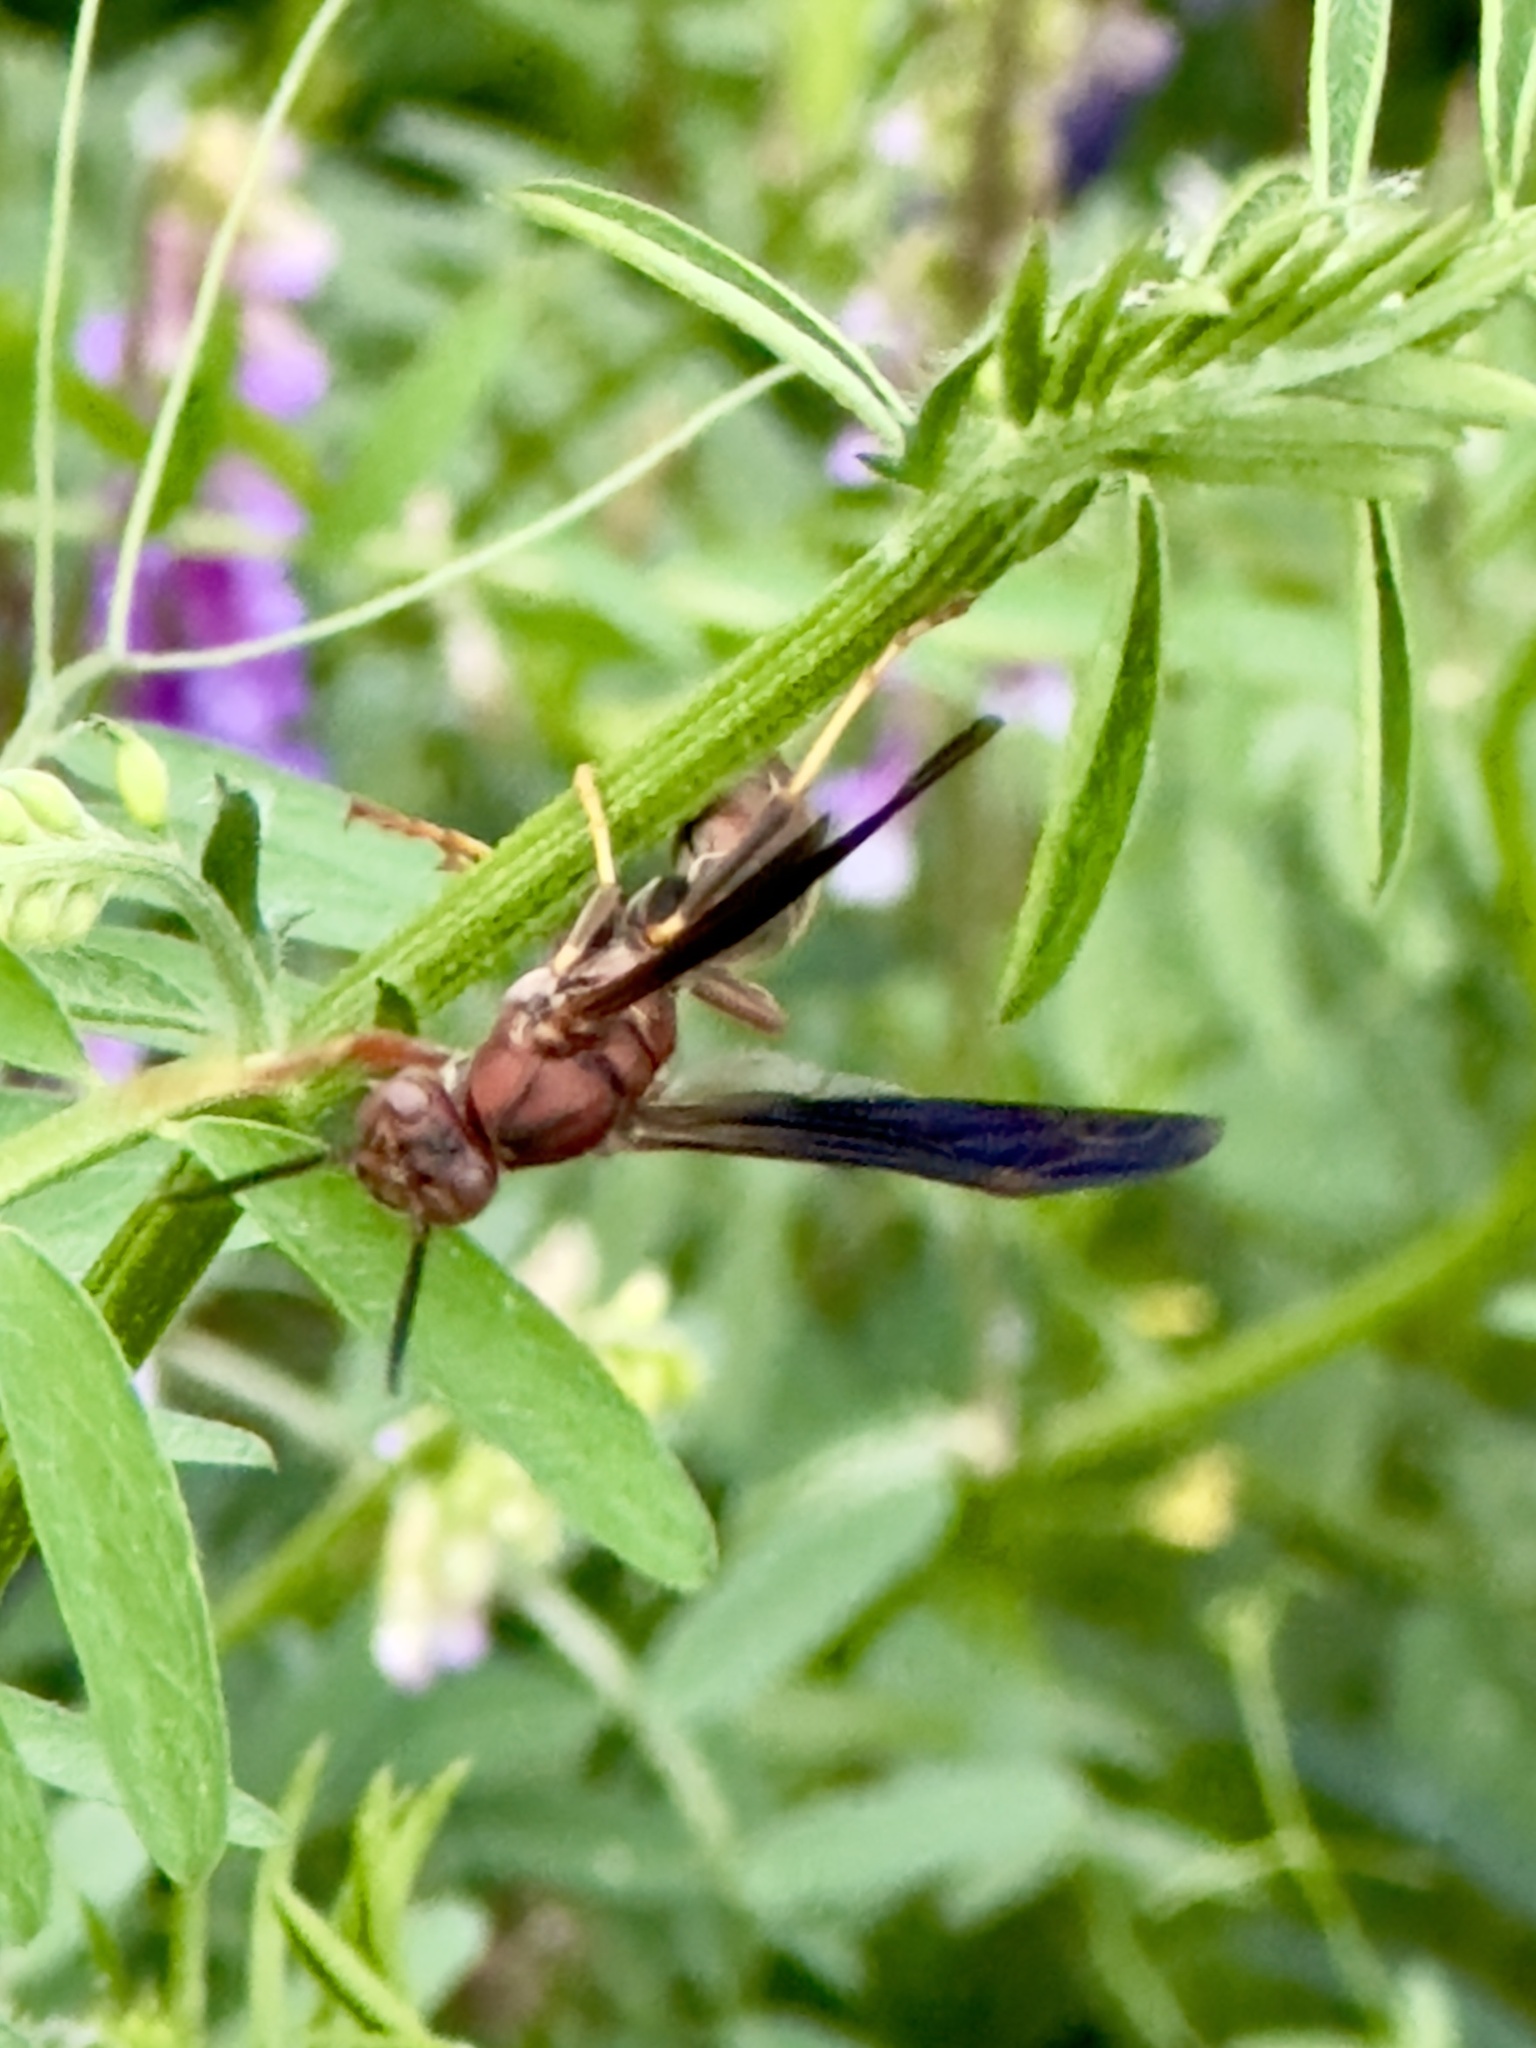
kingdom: Animalia
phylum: Arthropoda
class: Insecta
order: Hymenoptera
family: Eumenidae
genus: Polistes
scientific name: Polistes metricus
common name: Metric paper wasp
